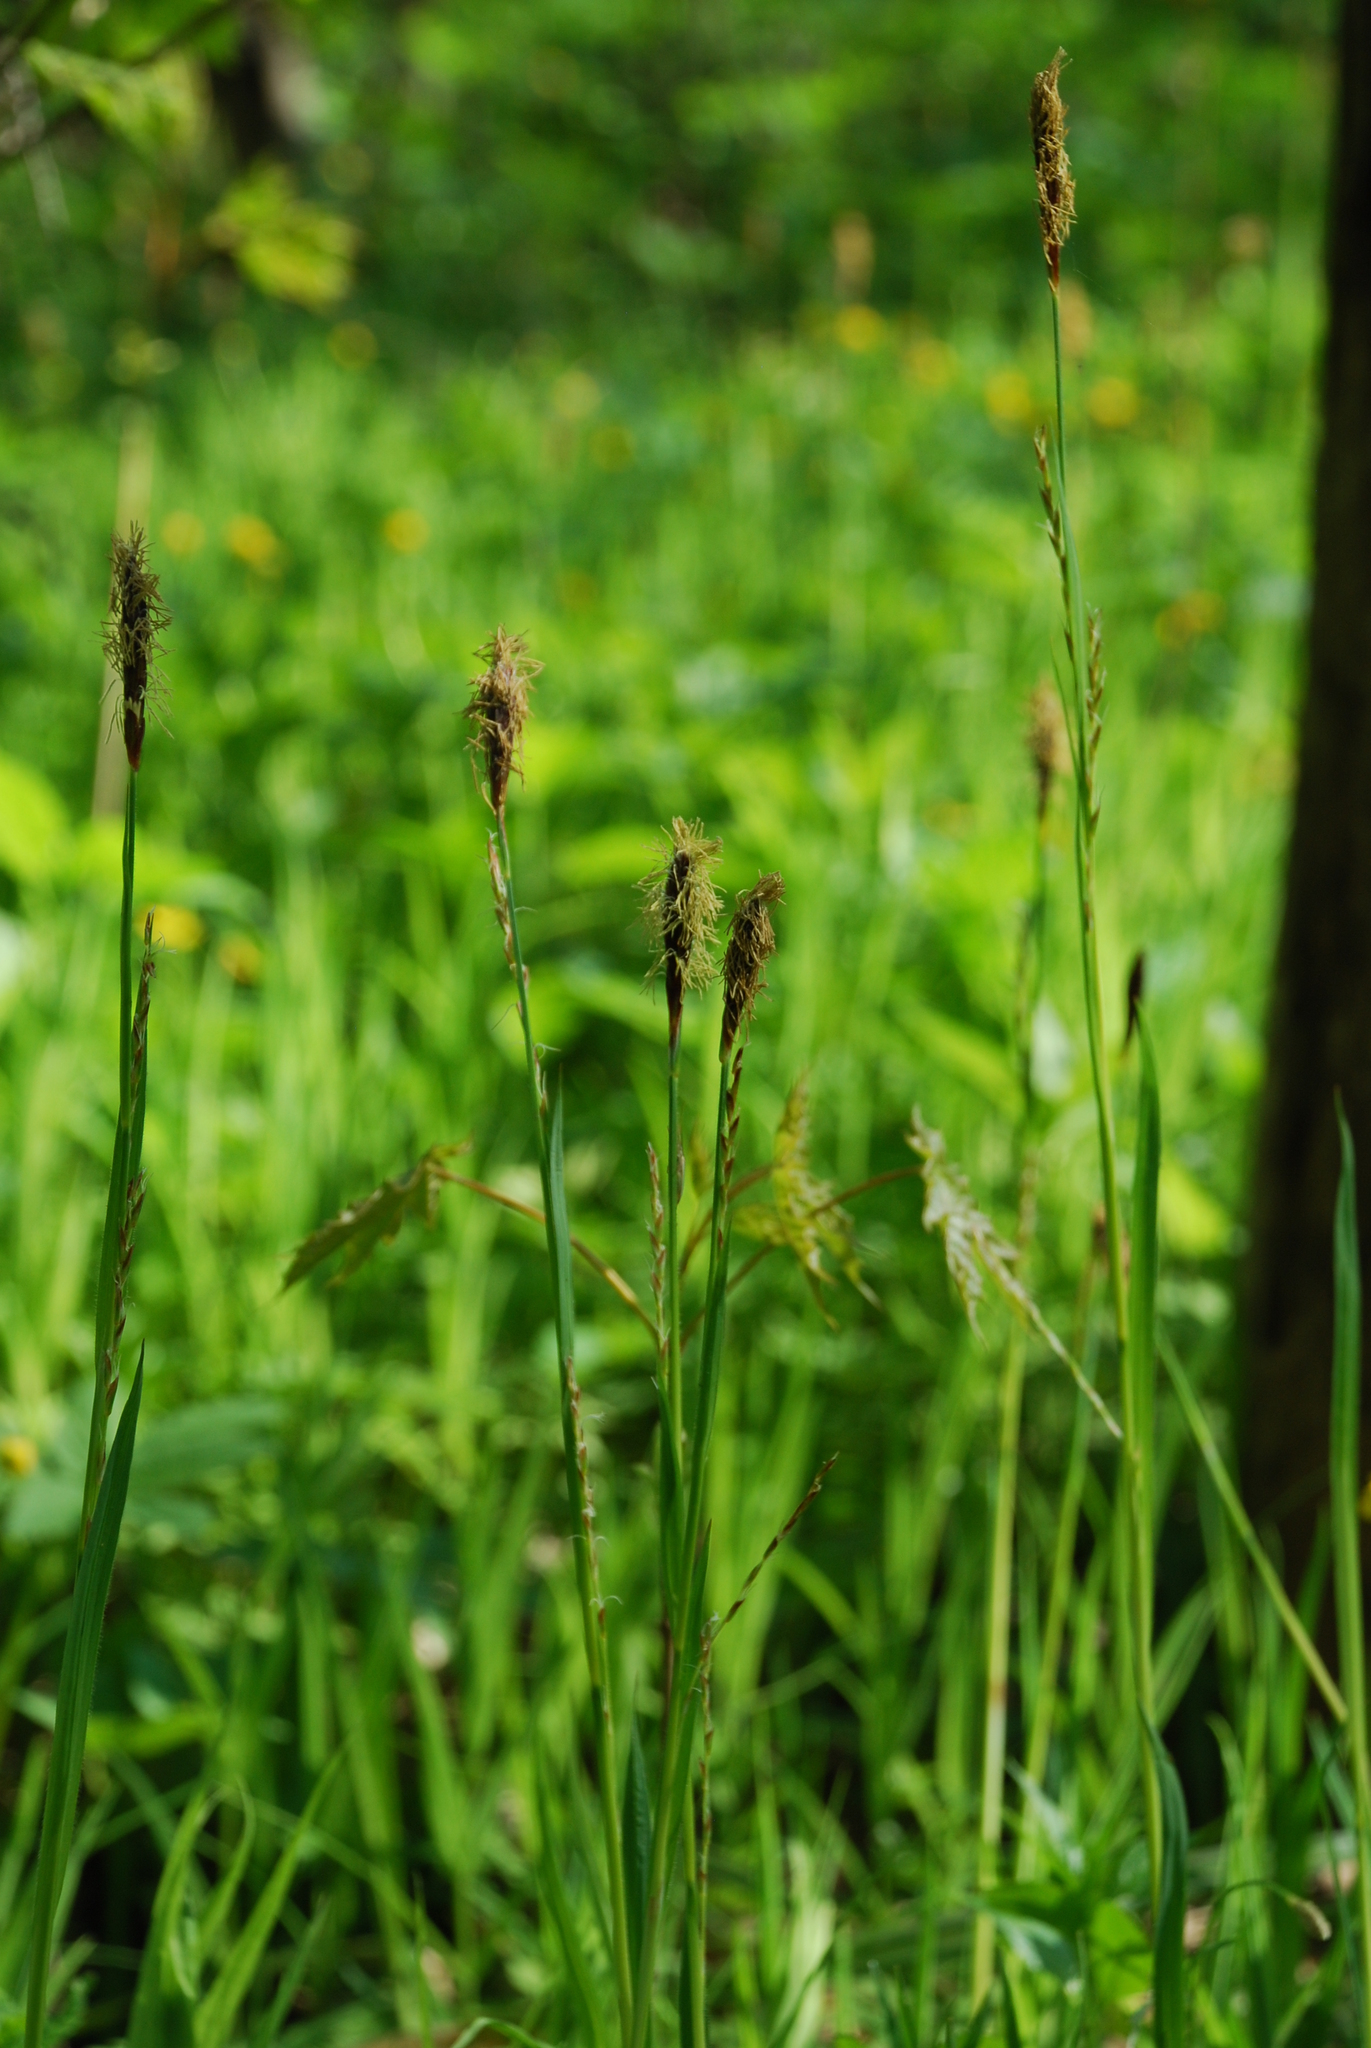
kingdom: Plantae
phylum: Tracheophyta
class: Liliopsida
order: Poales
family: Cyperaceae
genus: Carex
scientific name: Carex pilosa
